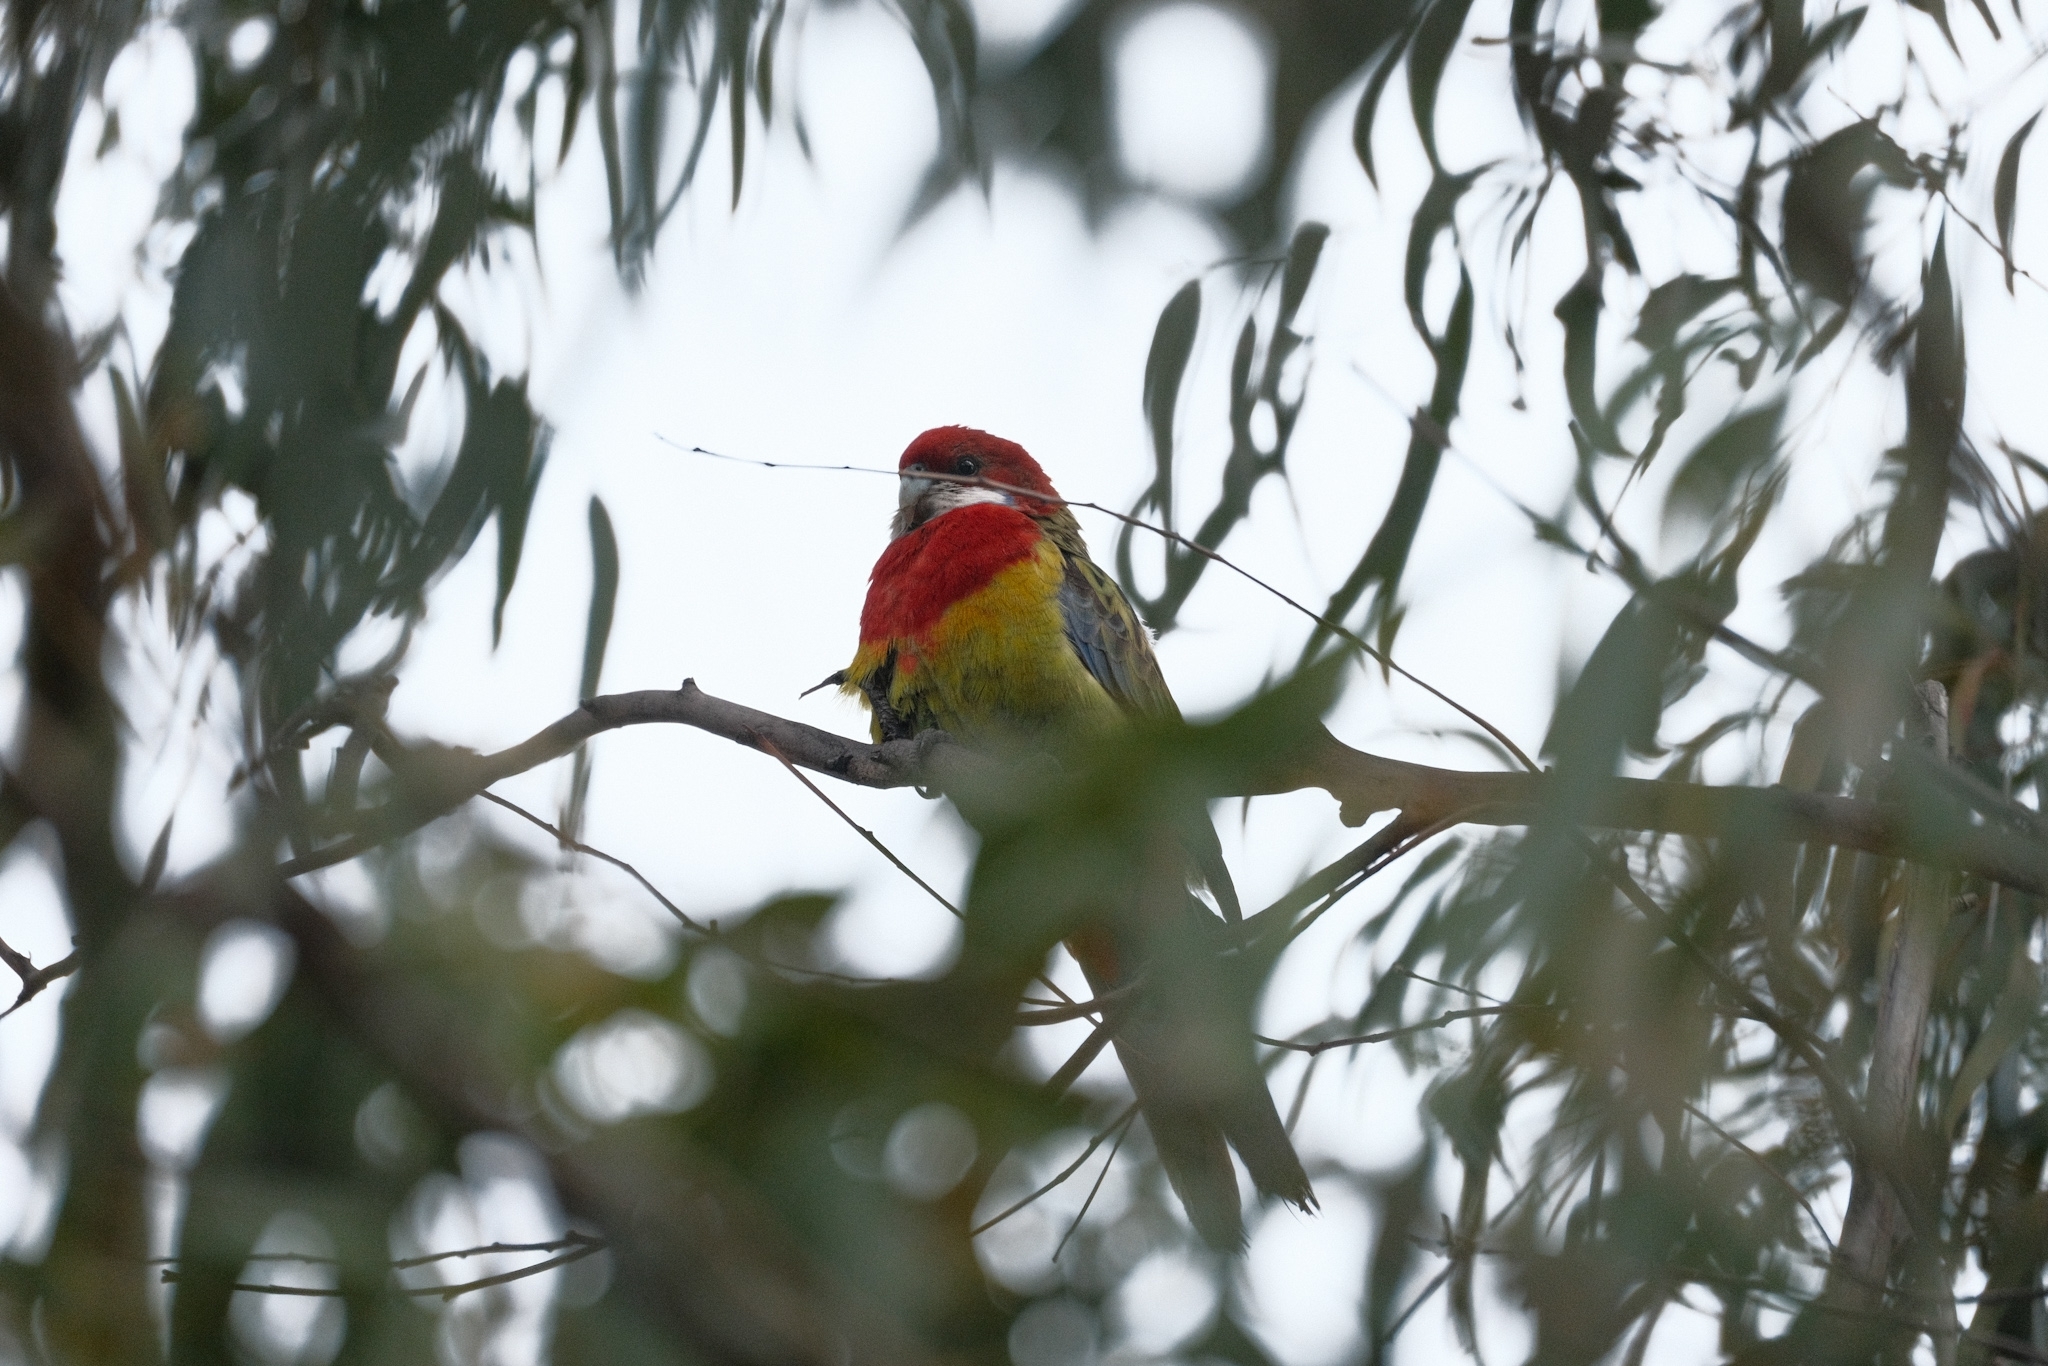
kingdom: Animalia
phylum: Chordata
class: Aves
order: Psittaciformes
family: Psittacidae
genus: Platycercus
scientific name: Platycercus eximius
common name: Eastern rosella
